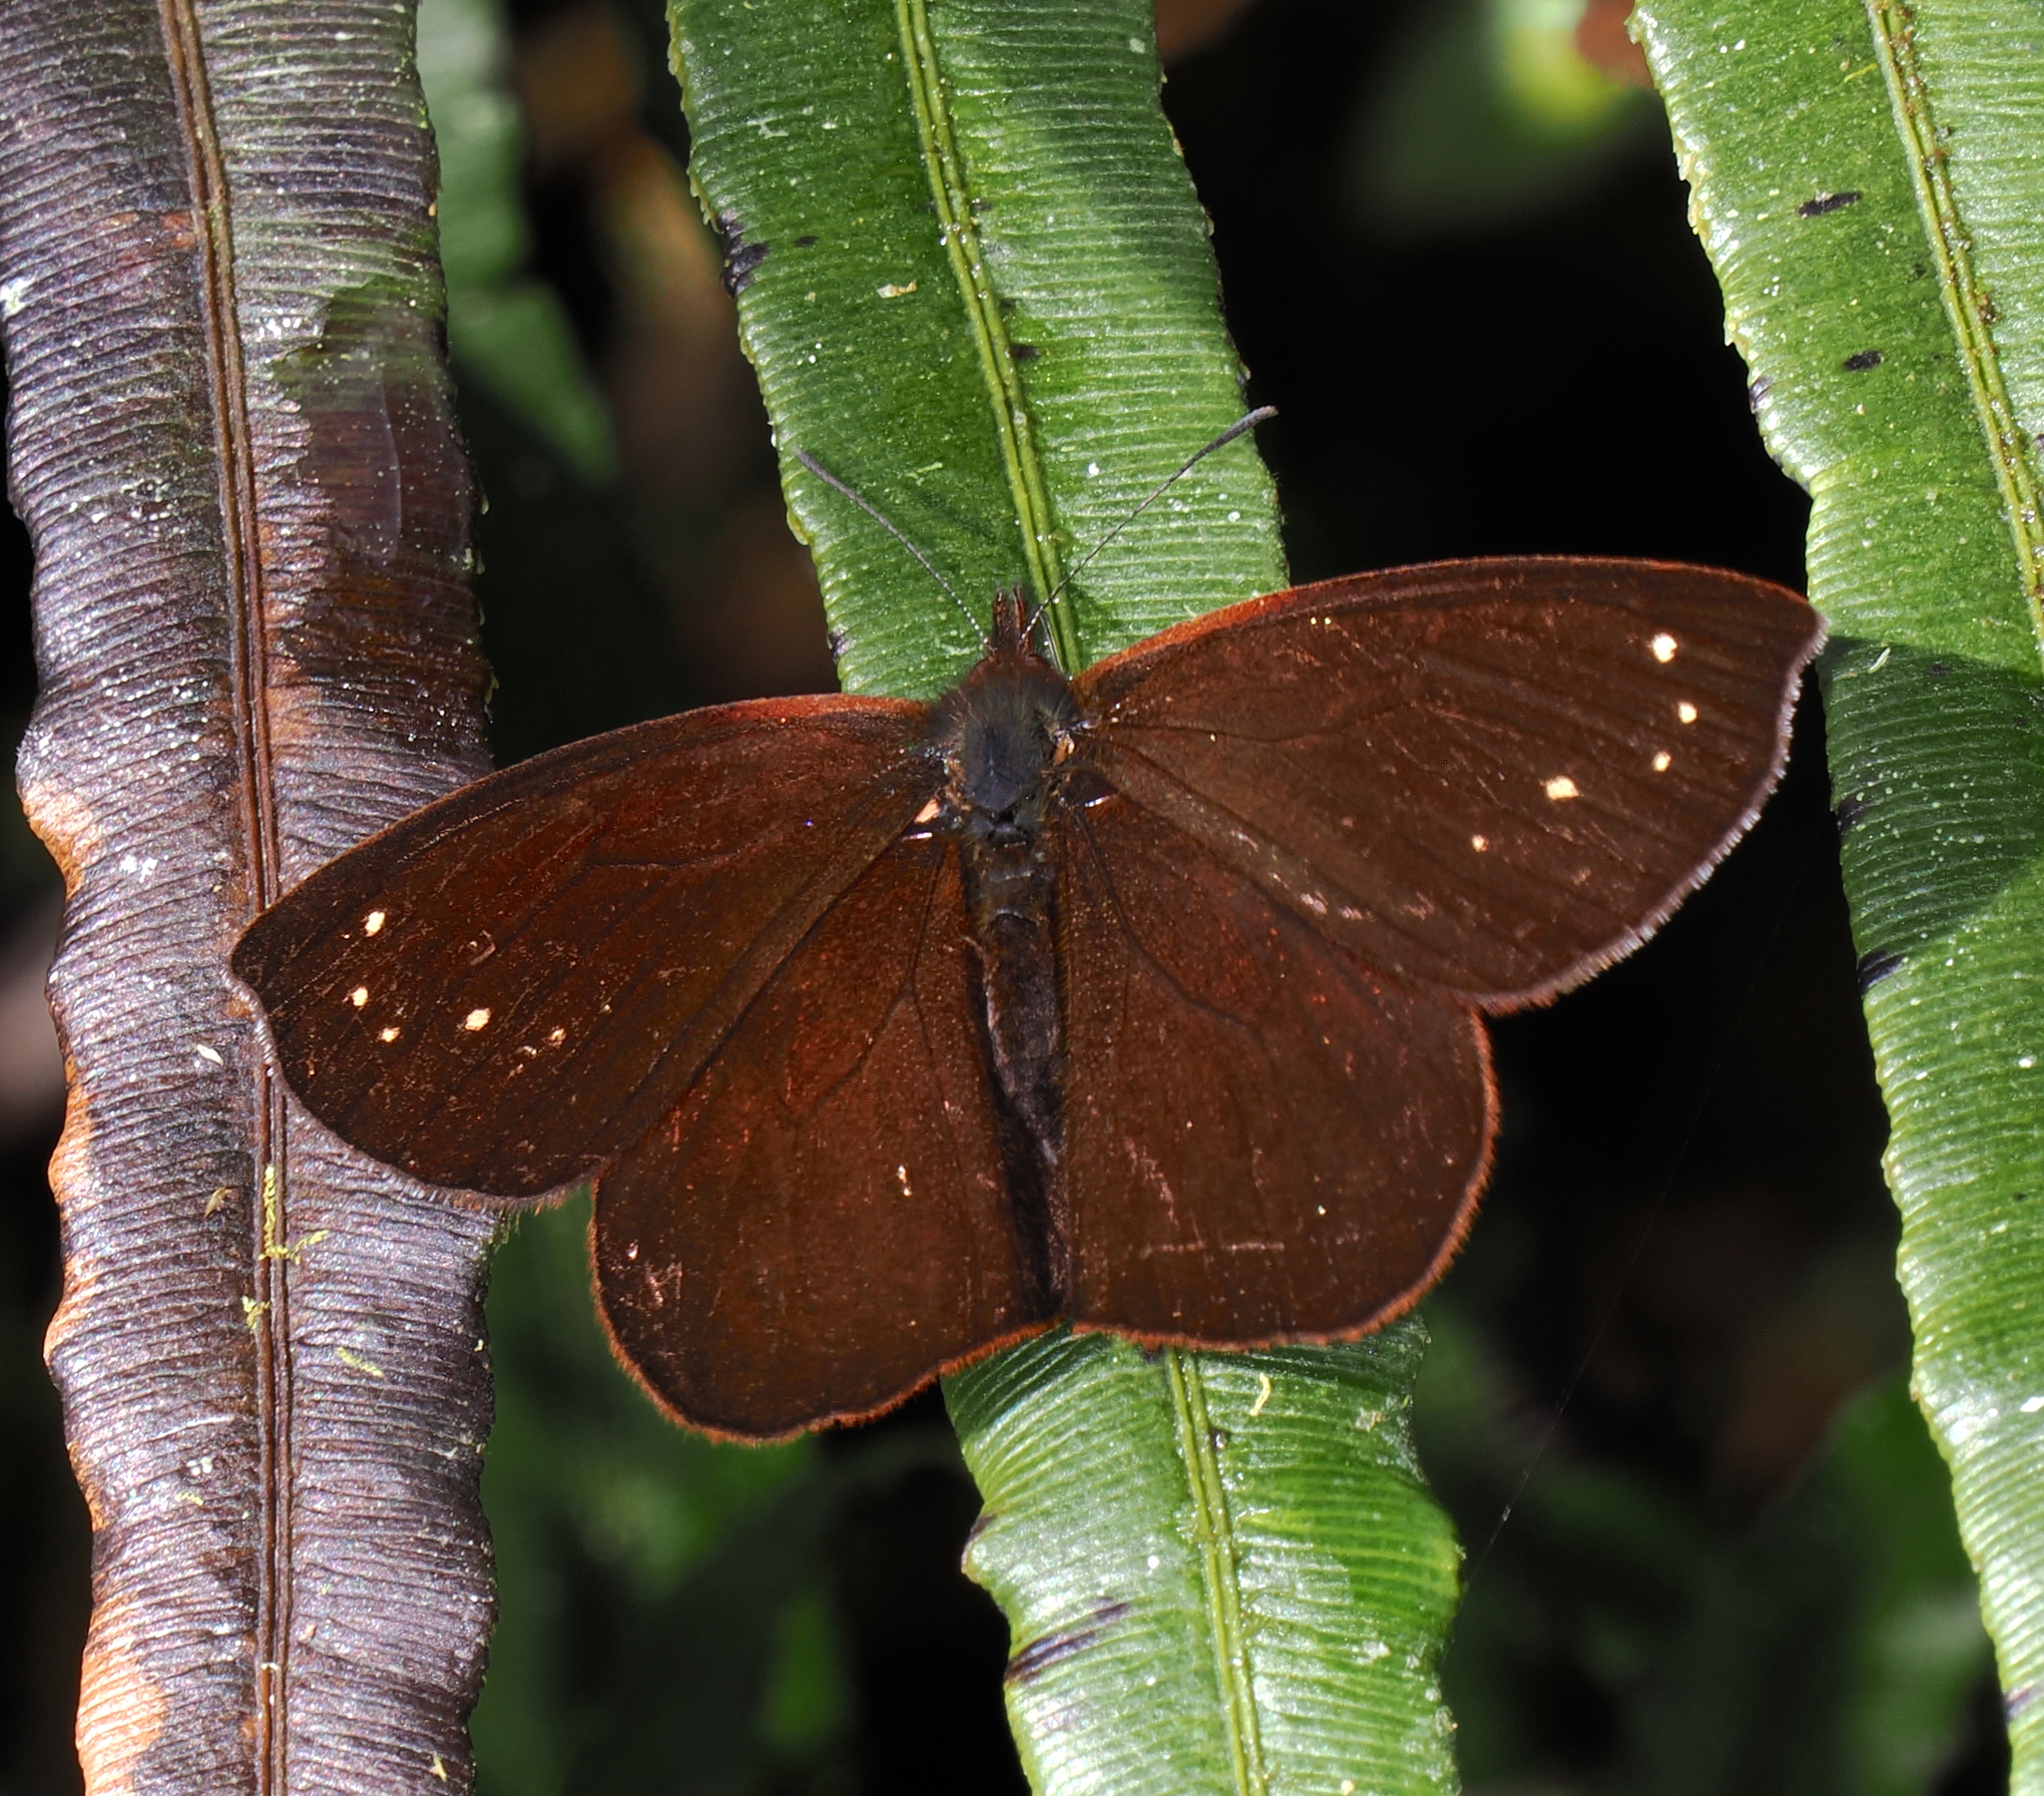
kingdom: Animalia
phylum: Arthropoda
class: Insecta
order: Lepidoptera
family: Nymphalidae
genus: Lymanopoda
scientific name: Lymanopoda excisa
